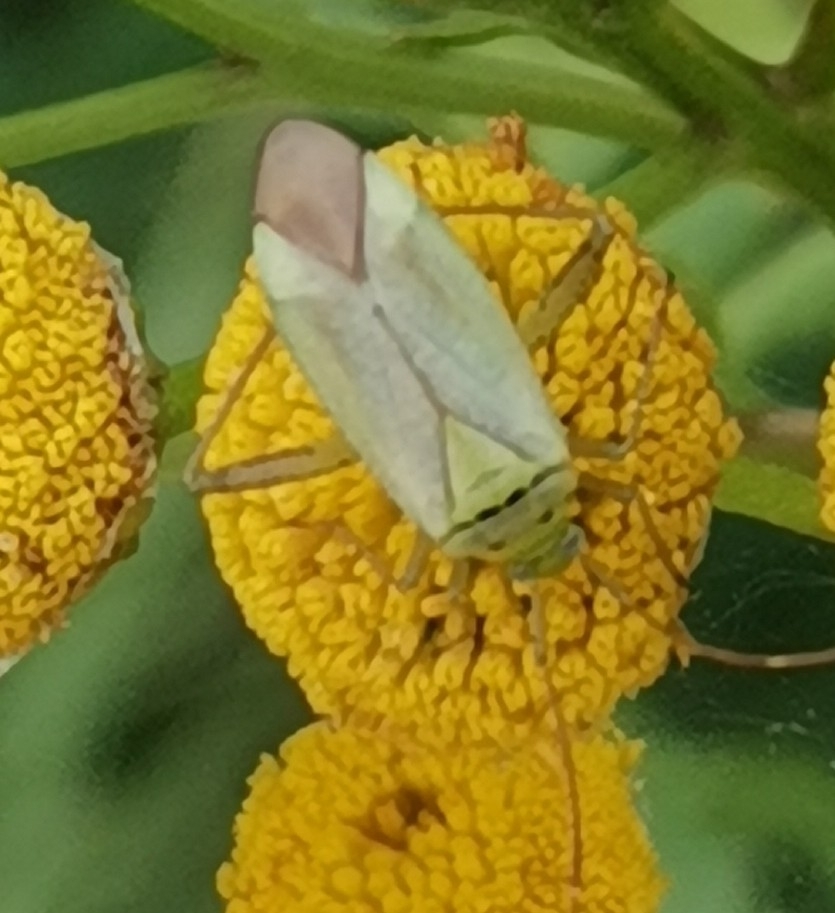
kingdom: Animalia
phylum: Arthropoda
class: Insecta
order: Hemiptera
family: Miridae
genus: Adelphocoris
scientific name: Adelphocoris quadripunctatus
